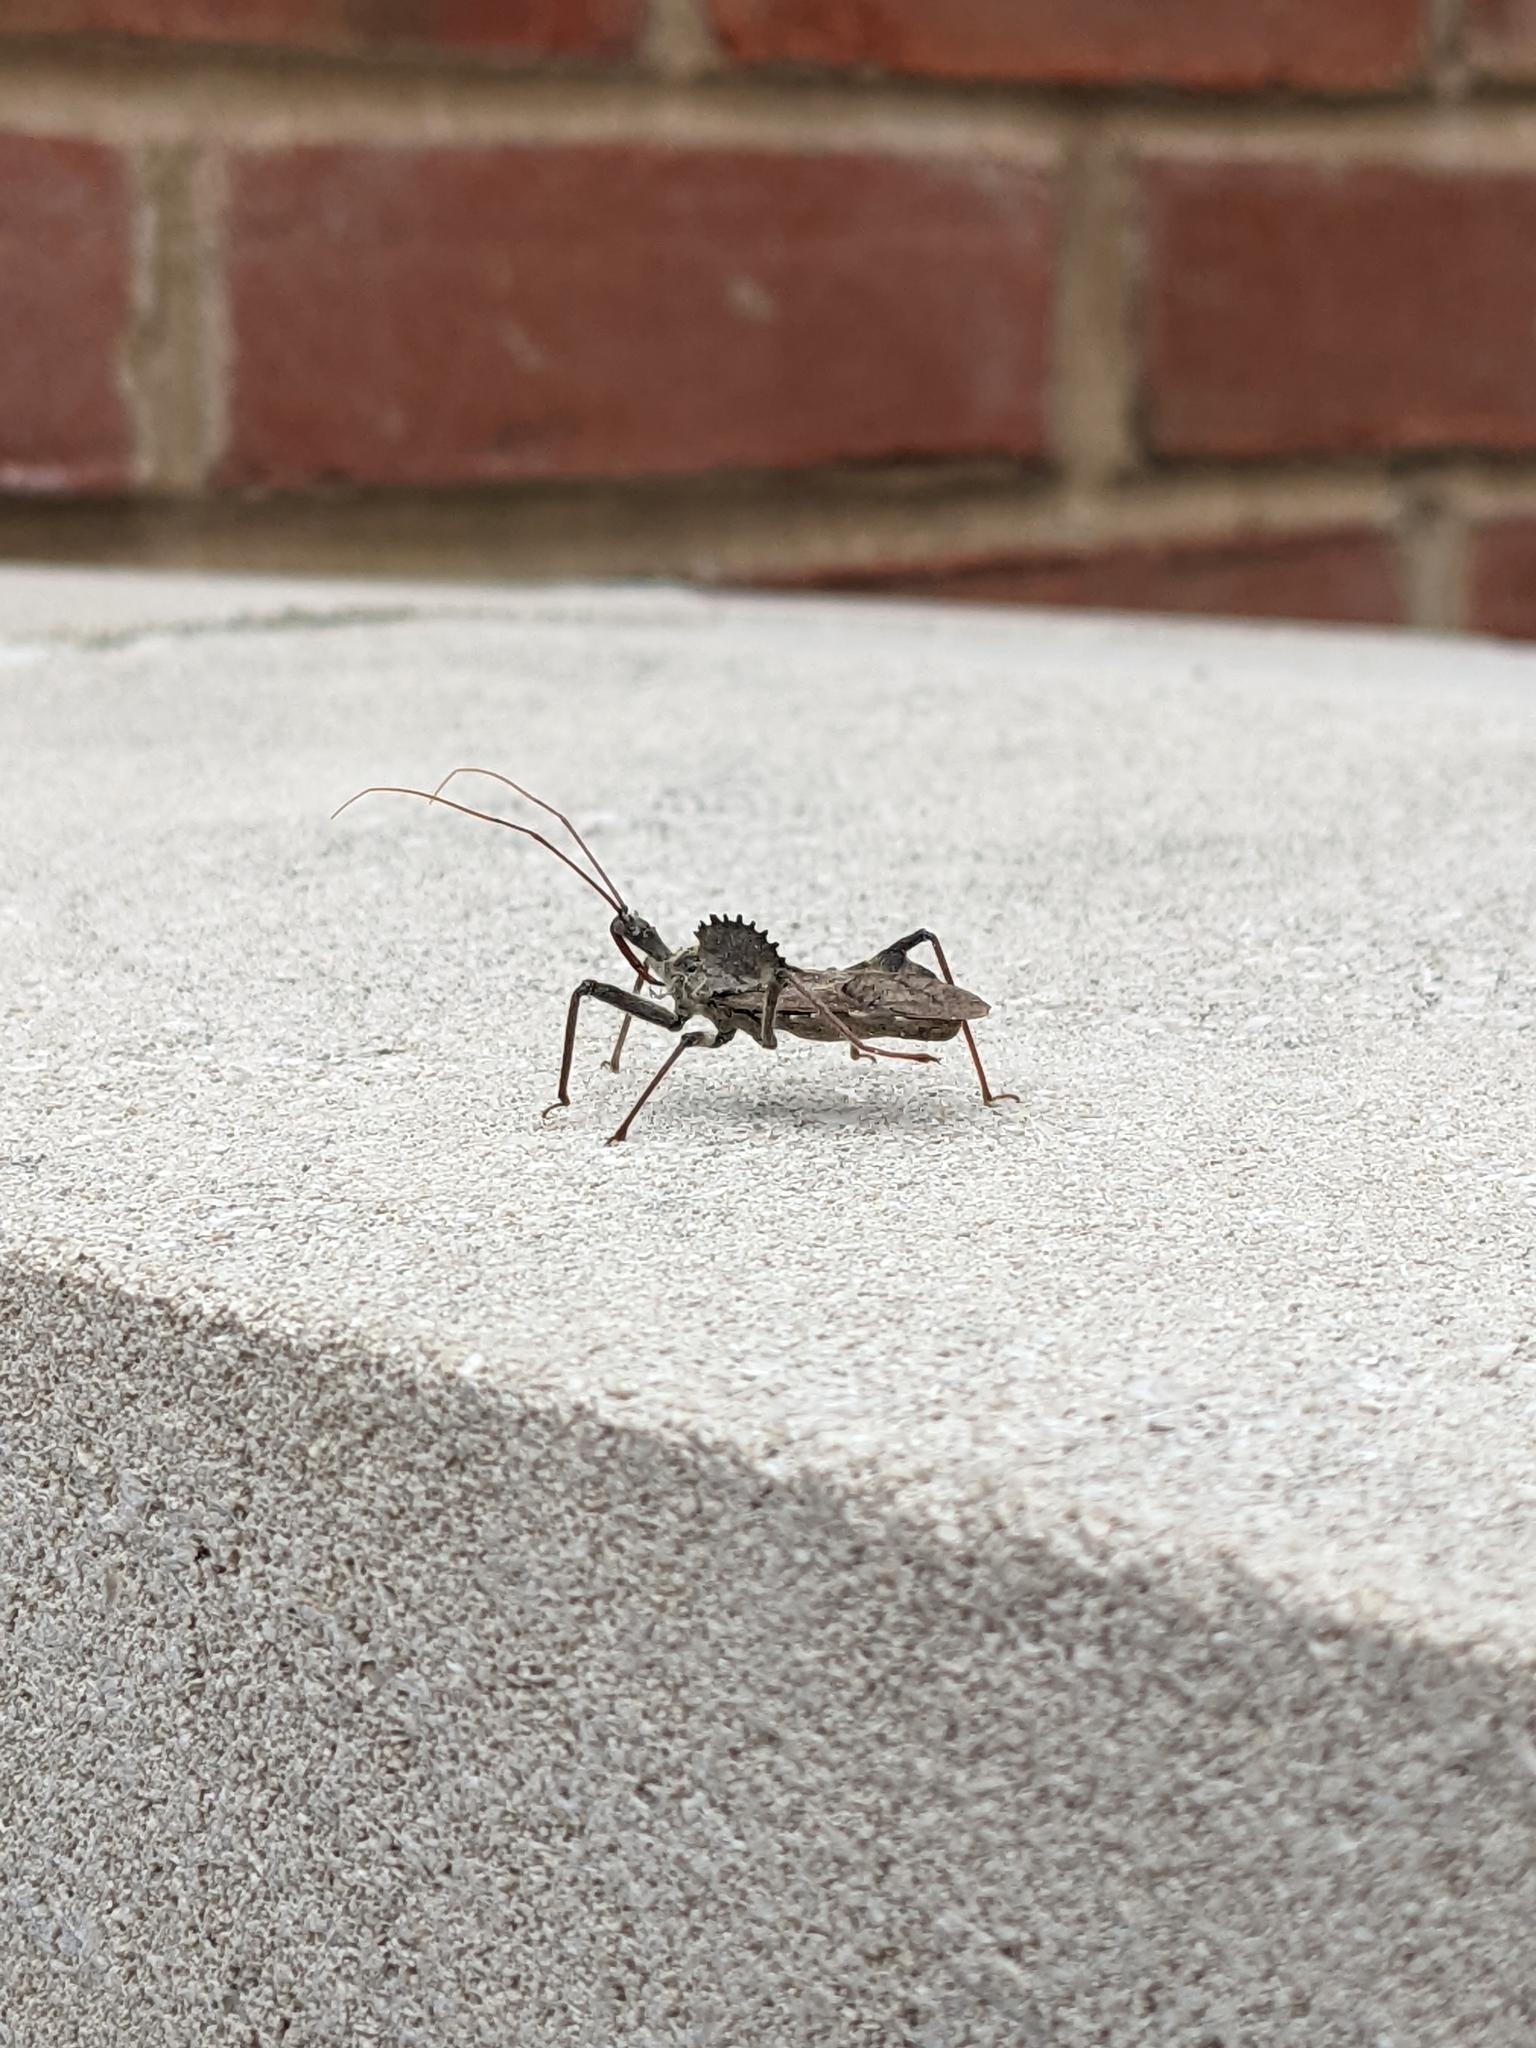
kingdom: Animalia
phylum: Arthropoda
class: Insecta
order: Hemiptera
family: Reduviidae
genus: Sinea
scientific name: Sinea spinipes
